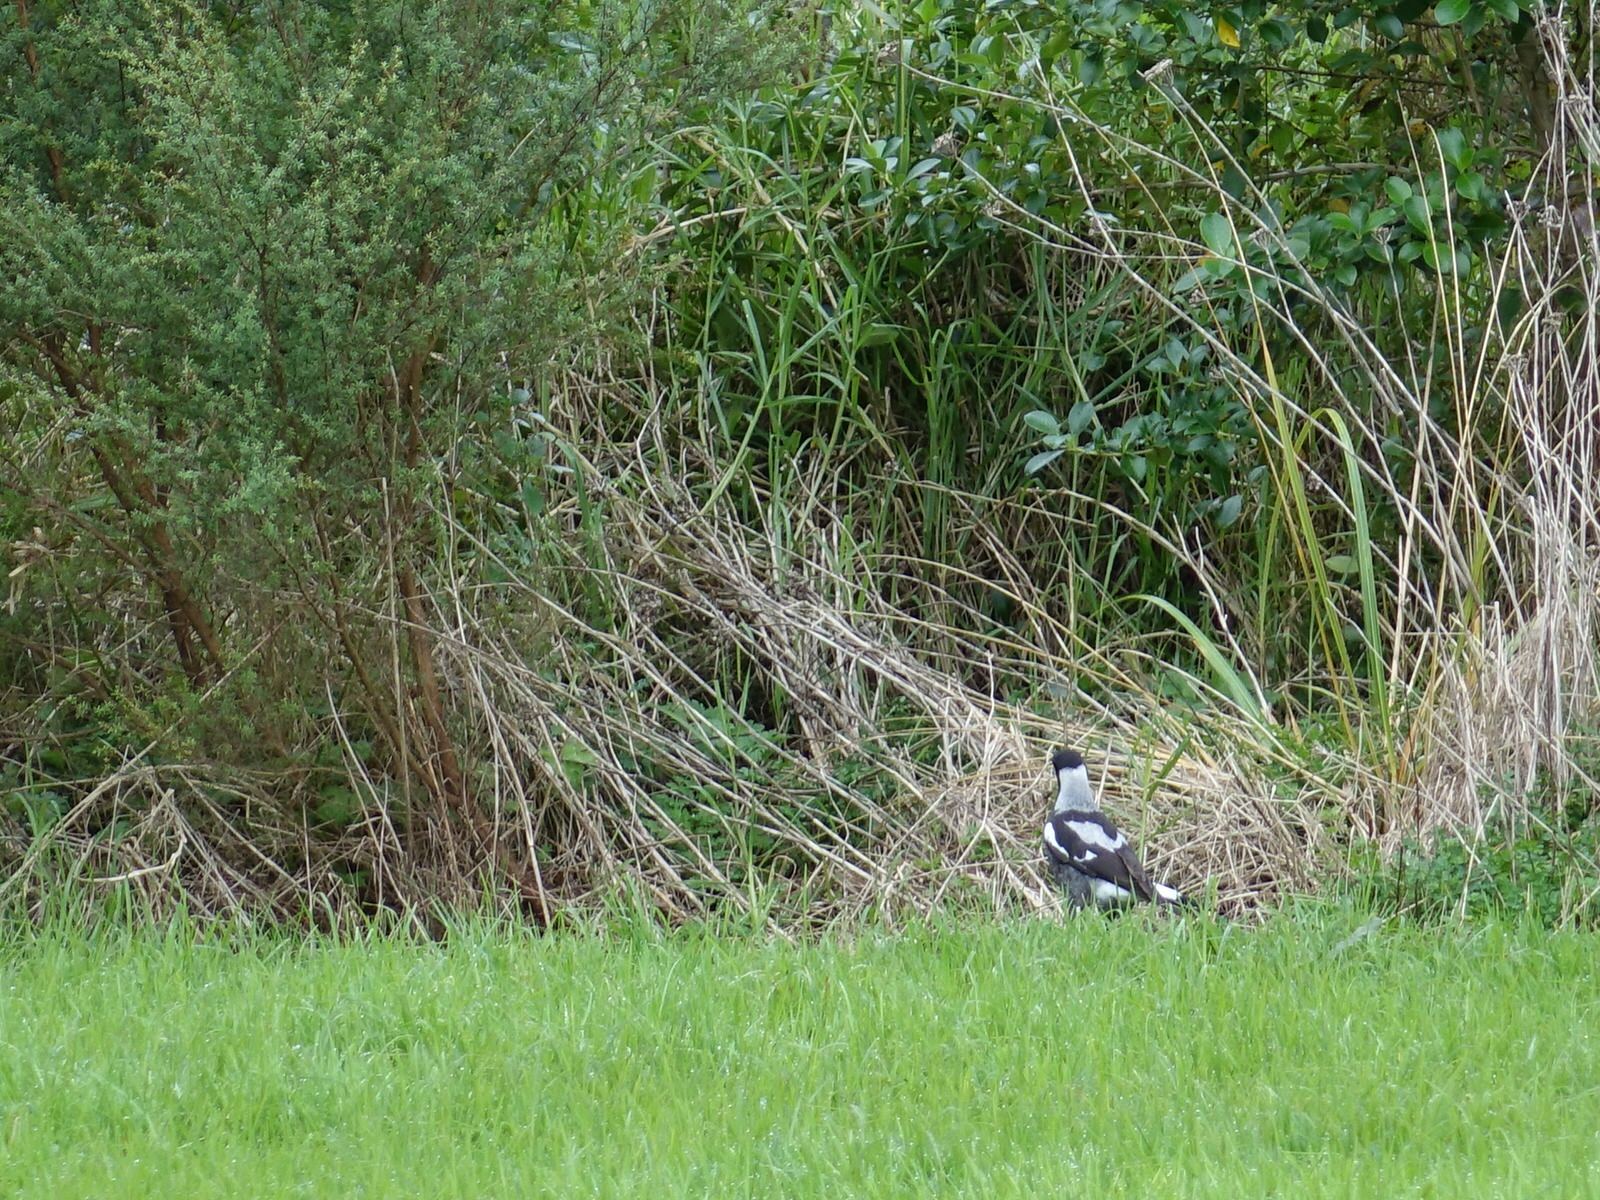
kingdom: Animalia
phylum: Chordata
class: Aves
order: Passeriformes
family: Cracticidae
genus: Gymnorhina
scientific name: Gymnorhina tibicen
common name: Australian magpie
